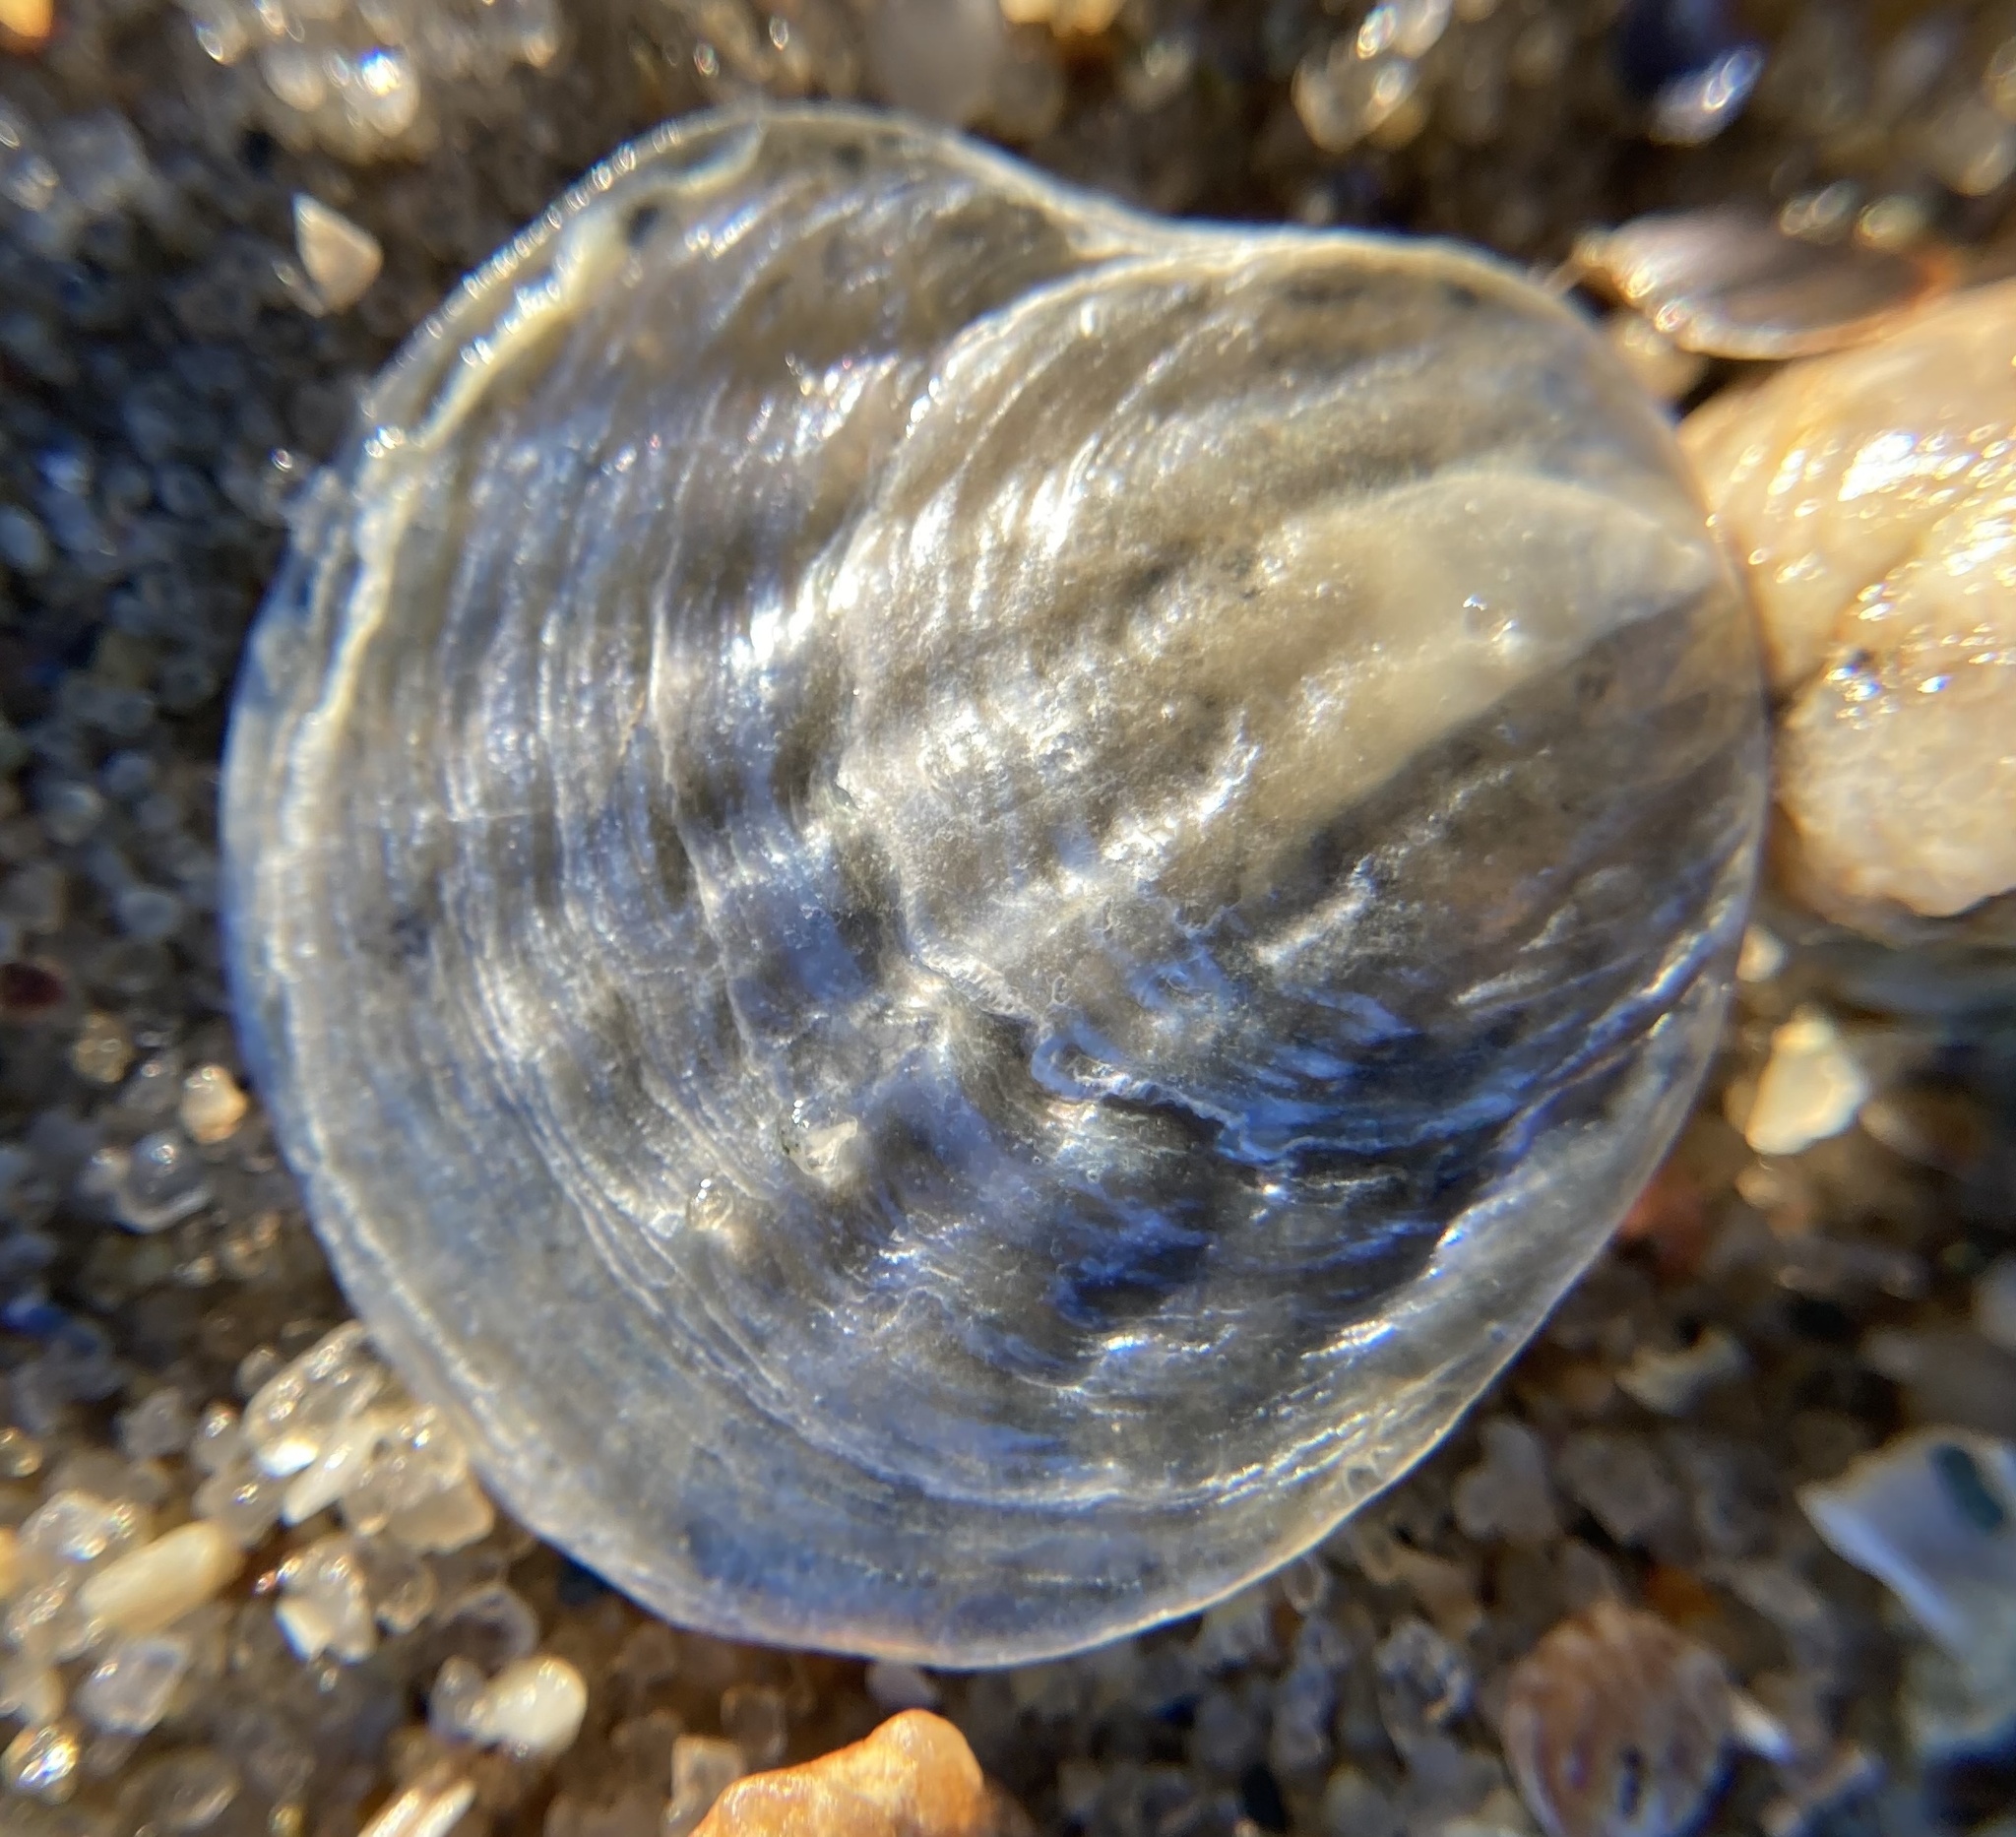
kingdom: Animalia
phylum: Mollusca
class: Bivalvia
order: Pectinida
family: Anomiidae
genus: Anomia
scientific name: Anomia simplex
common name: Common jingle shell
